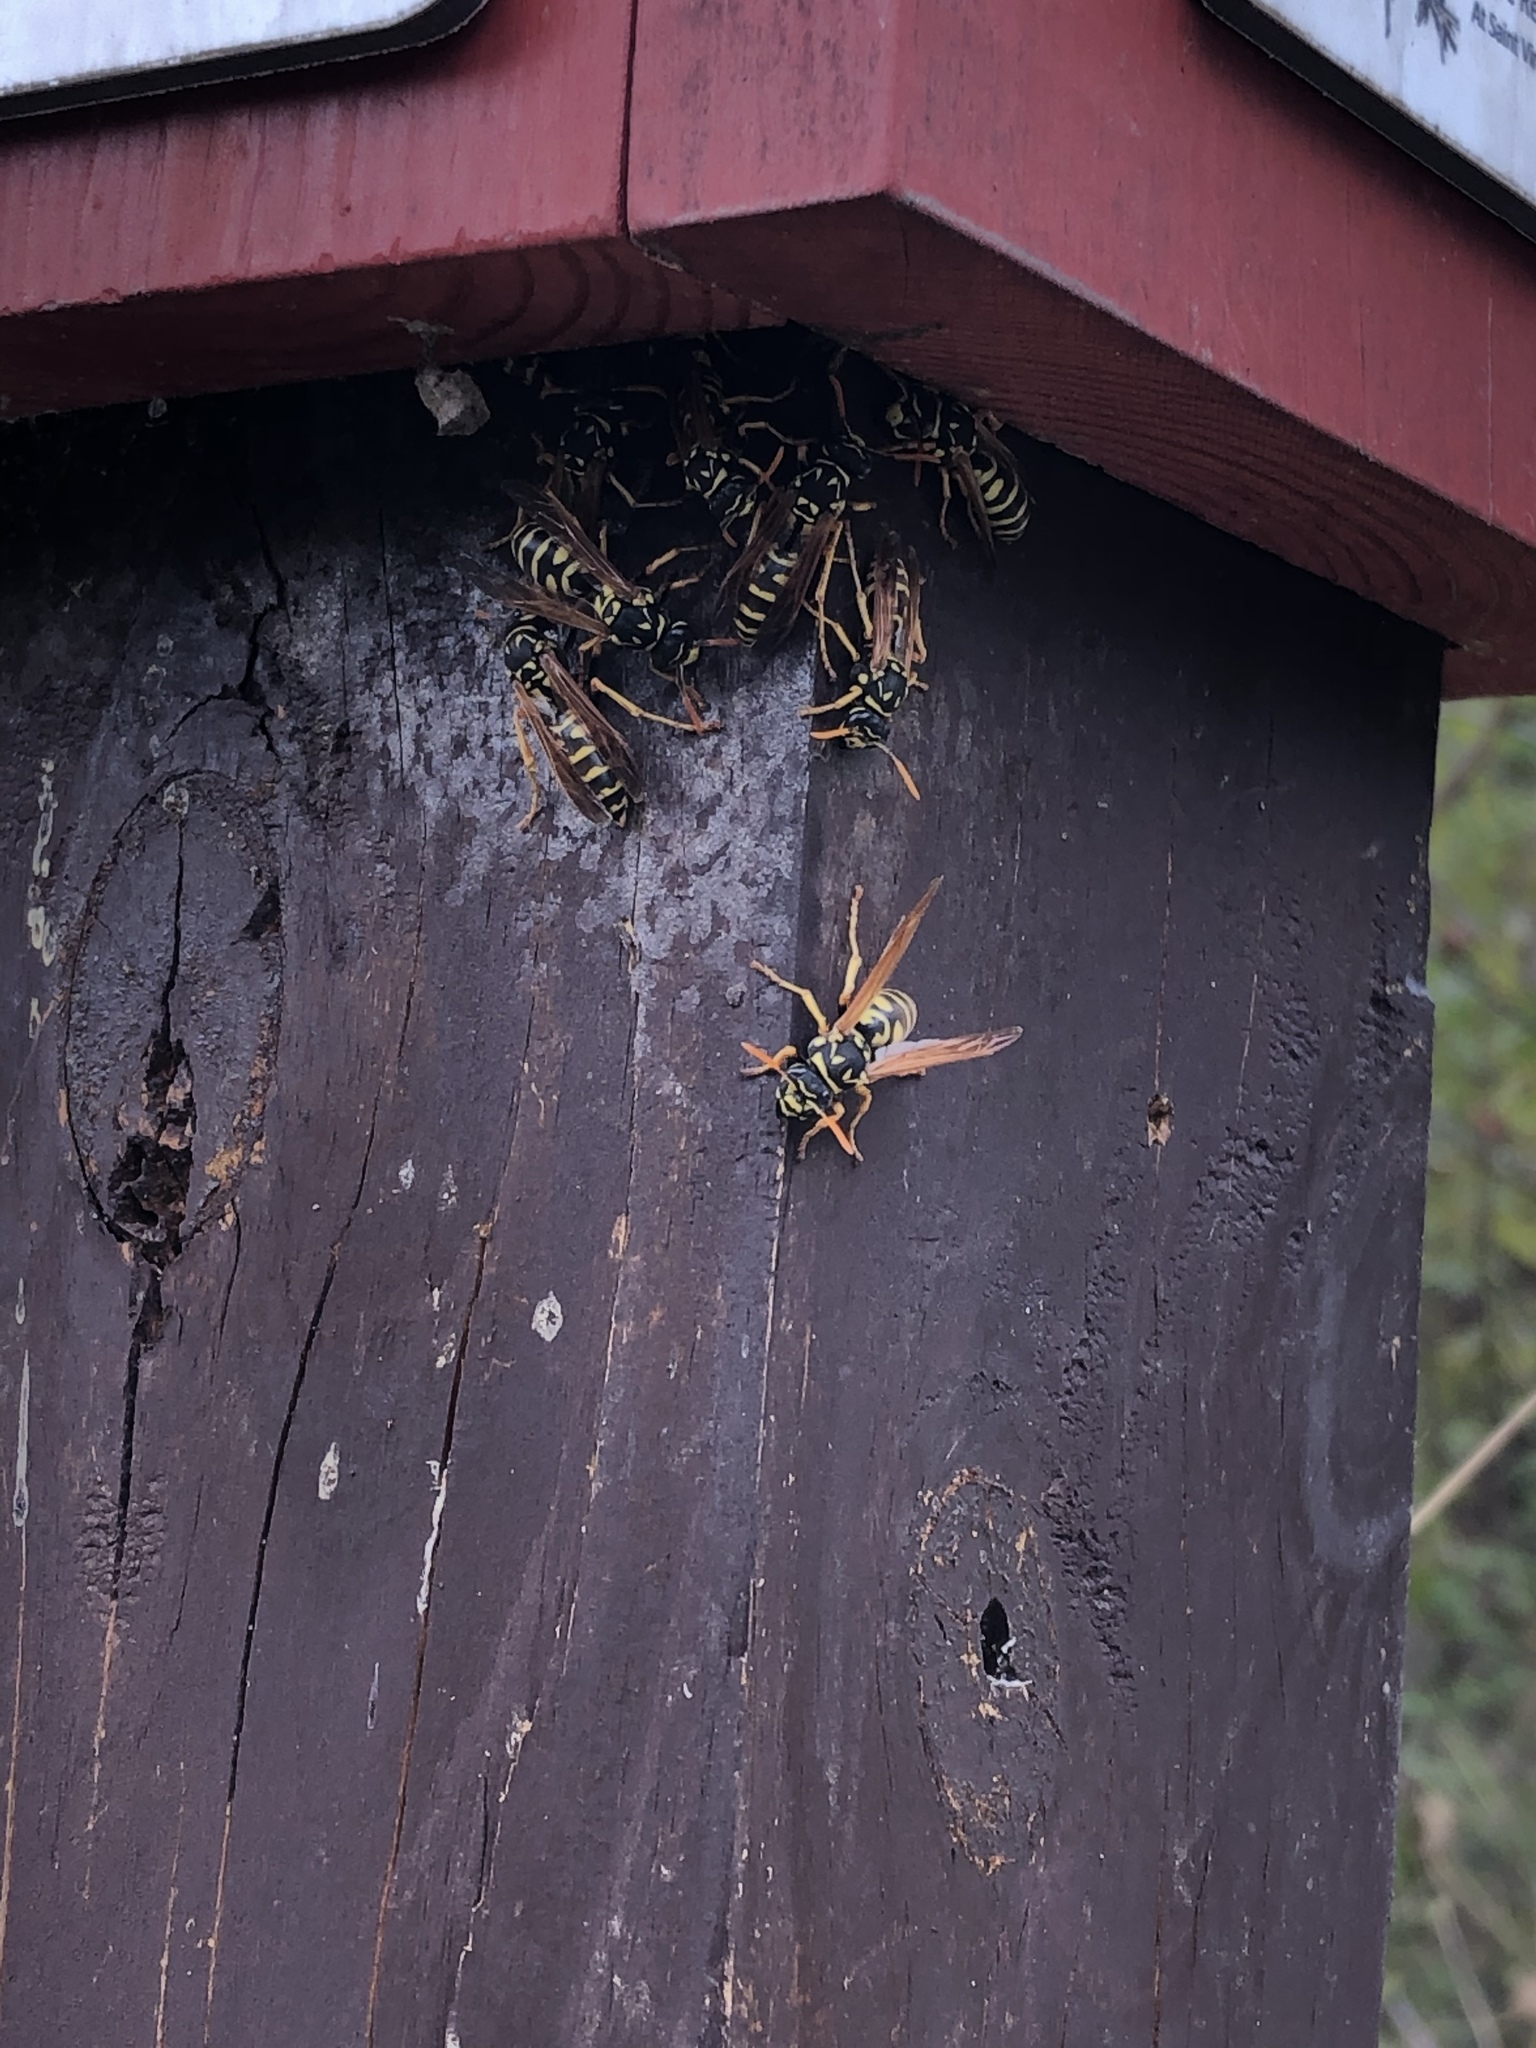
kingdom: Animalia
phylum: Arthropoda
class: Insecta
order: Hymenoptera
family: Eumenidae
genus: Polistes
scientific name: Polistes dominula
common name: Paper wasp
